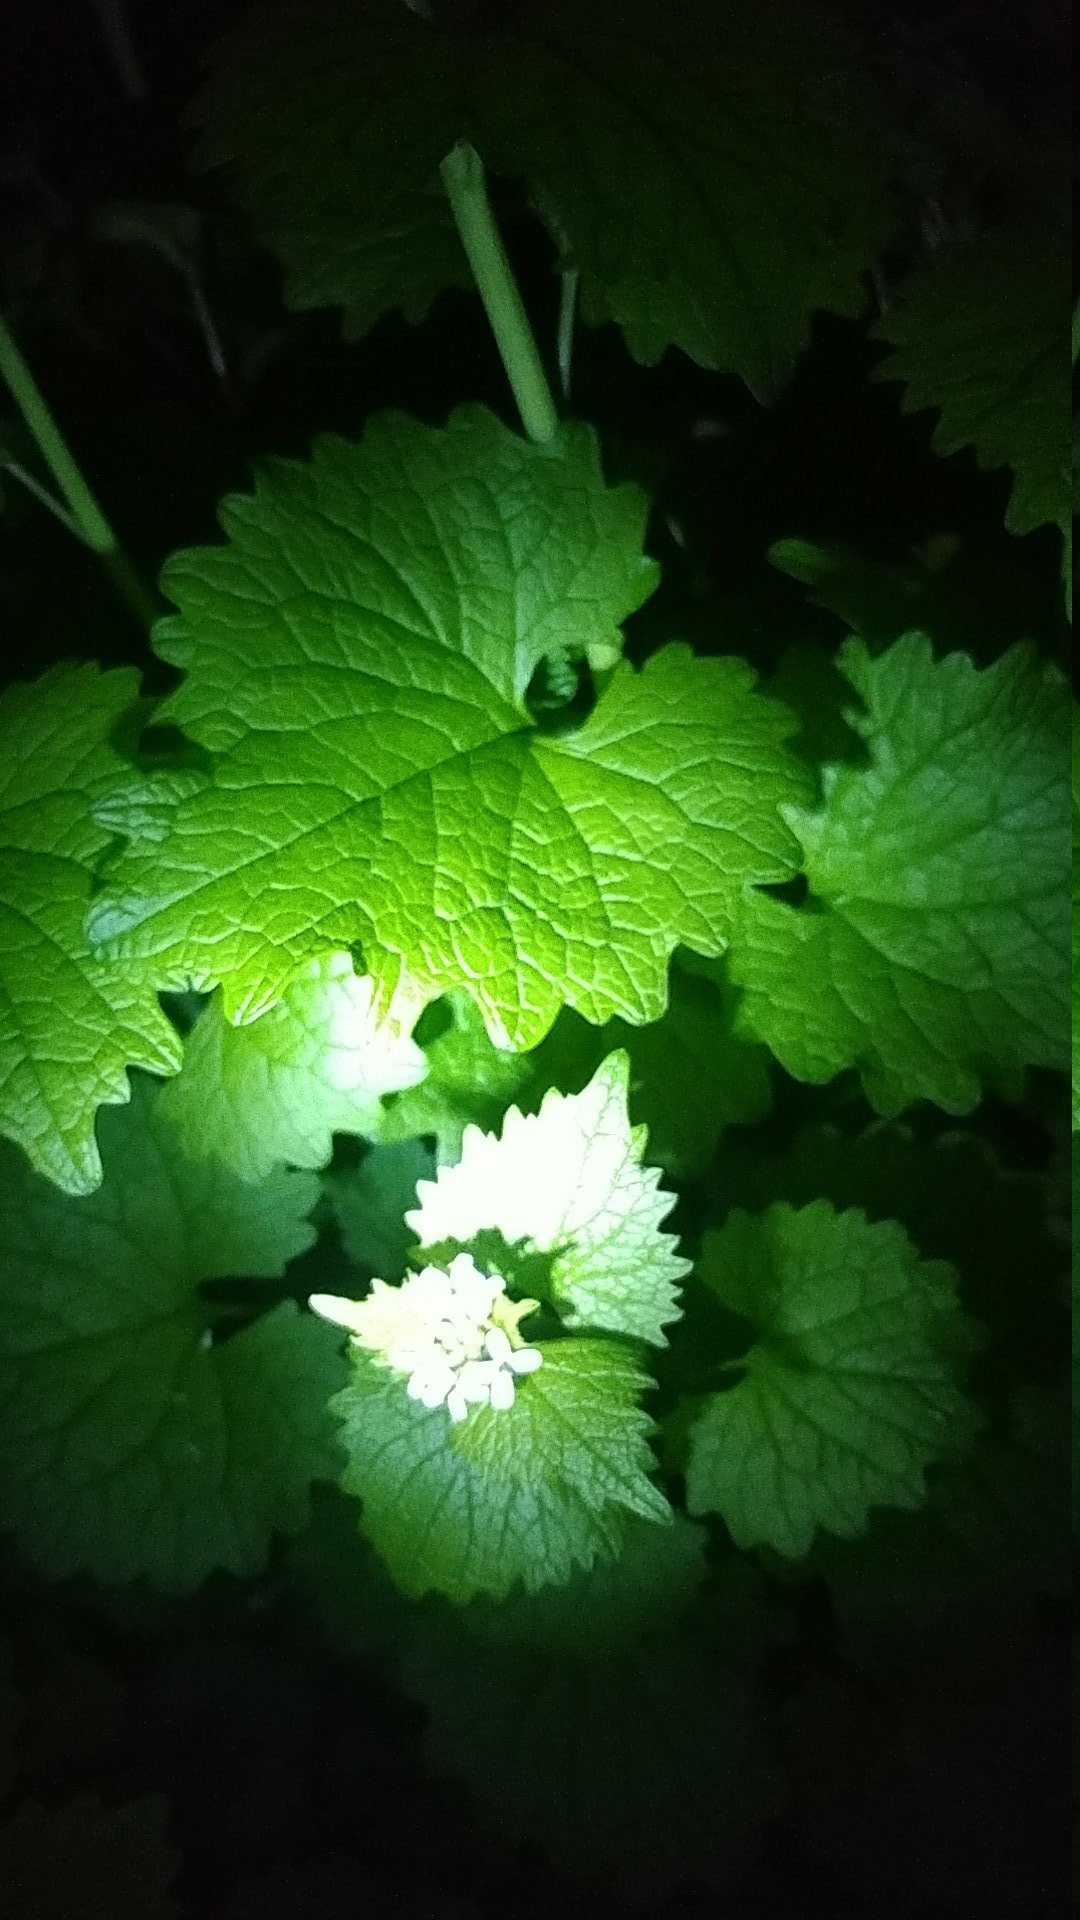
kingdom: Plantae
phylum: Tracheophyta
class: Magnoliopsida
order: Brassicales
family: Brassicaceae
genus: Alliaria
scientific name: Alliaria petiolata
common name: Garlic mustard
